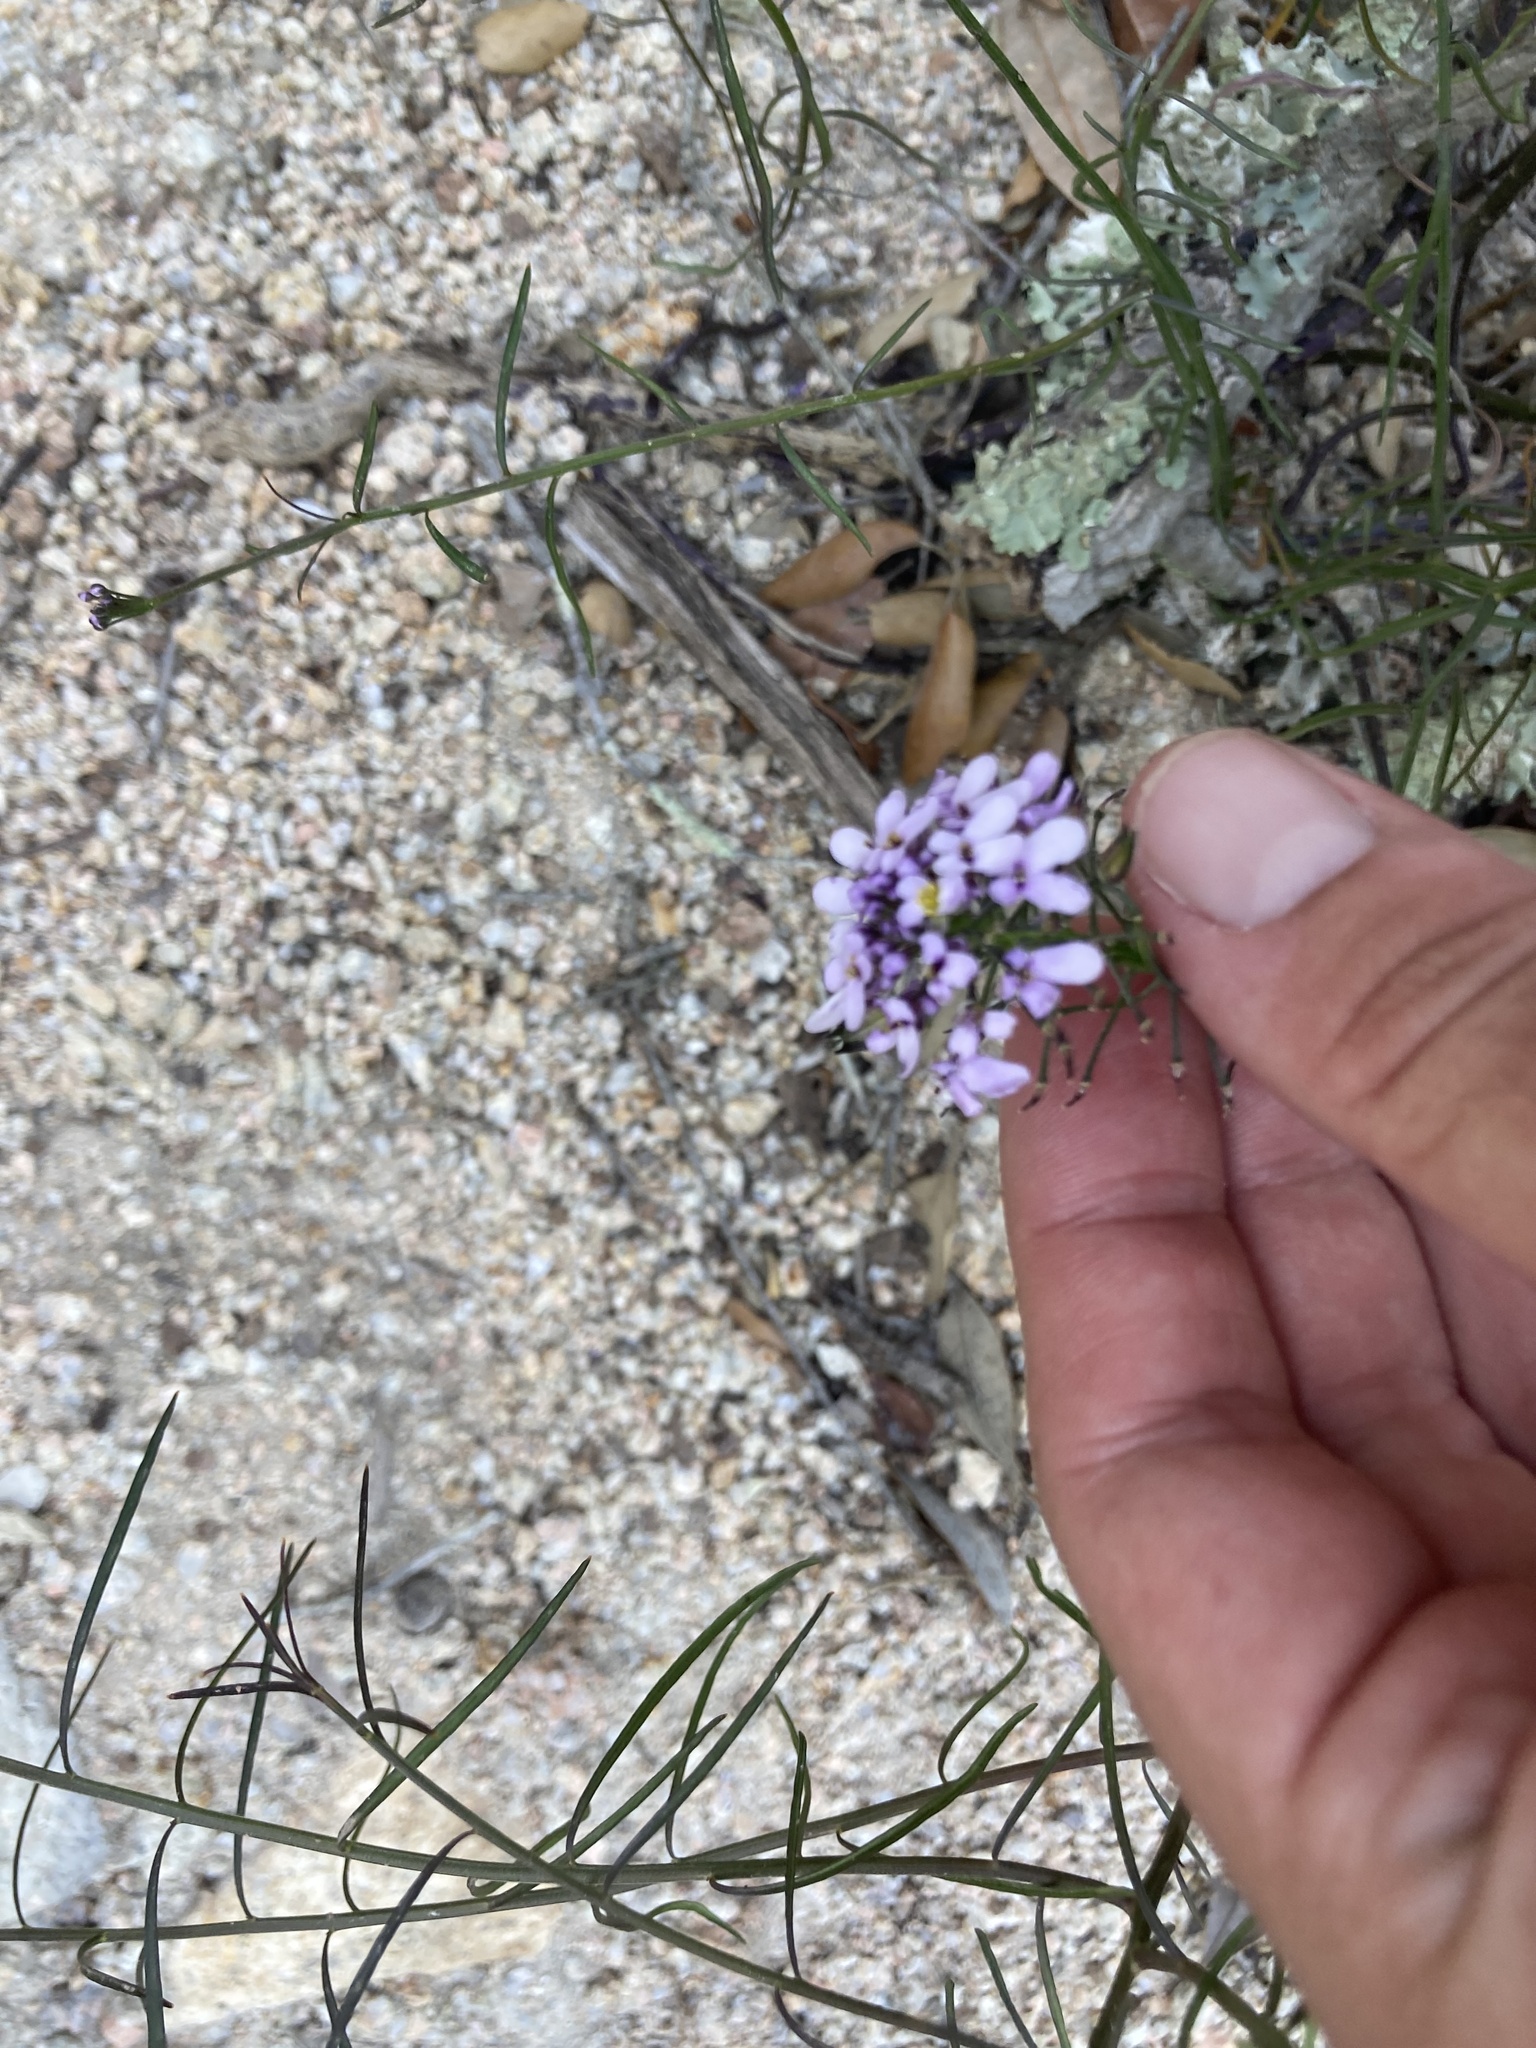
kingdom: Plantae
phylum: Tracheophyta
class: Magnoliopsida
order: Brassicales
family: Brassicaceae
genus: Iberis
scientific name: Iberis linifolia
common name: Candytuft
